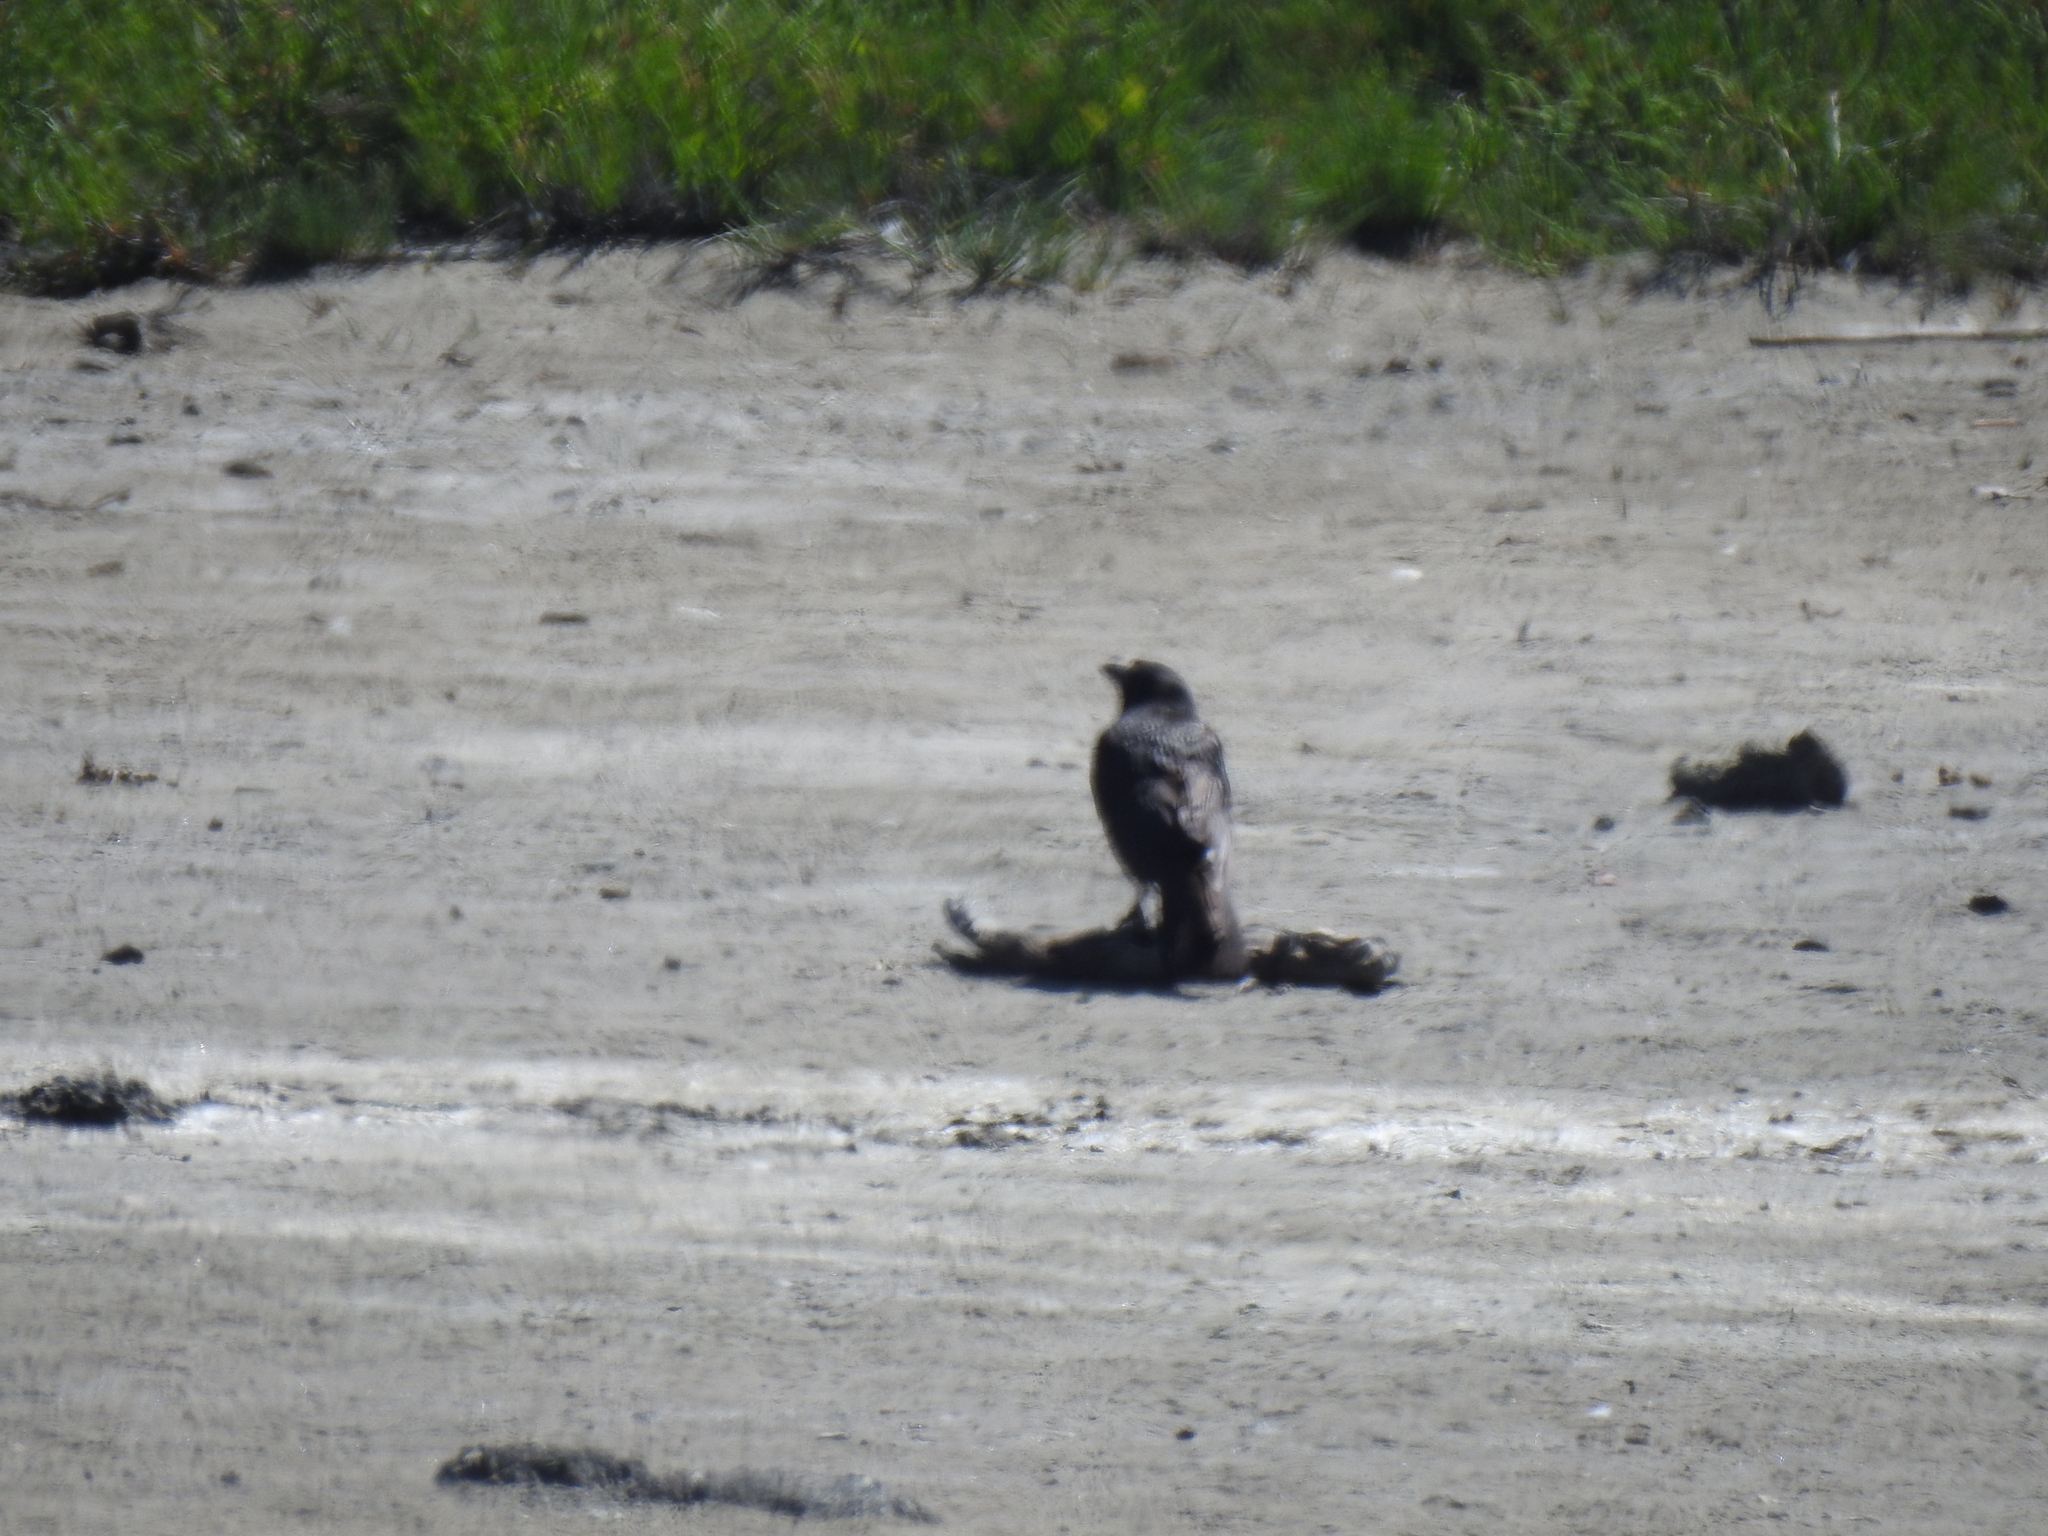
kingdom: Animalia
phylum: Chordata
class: Aves
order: Passeriformes
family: Corvidae
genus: Corvus
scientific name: Corvus brachyrhynchos
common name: American crow
